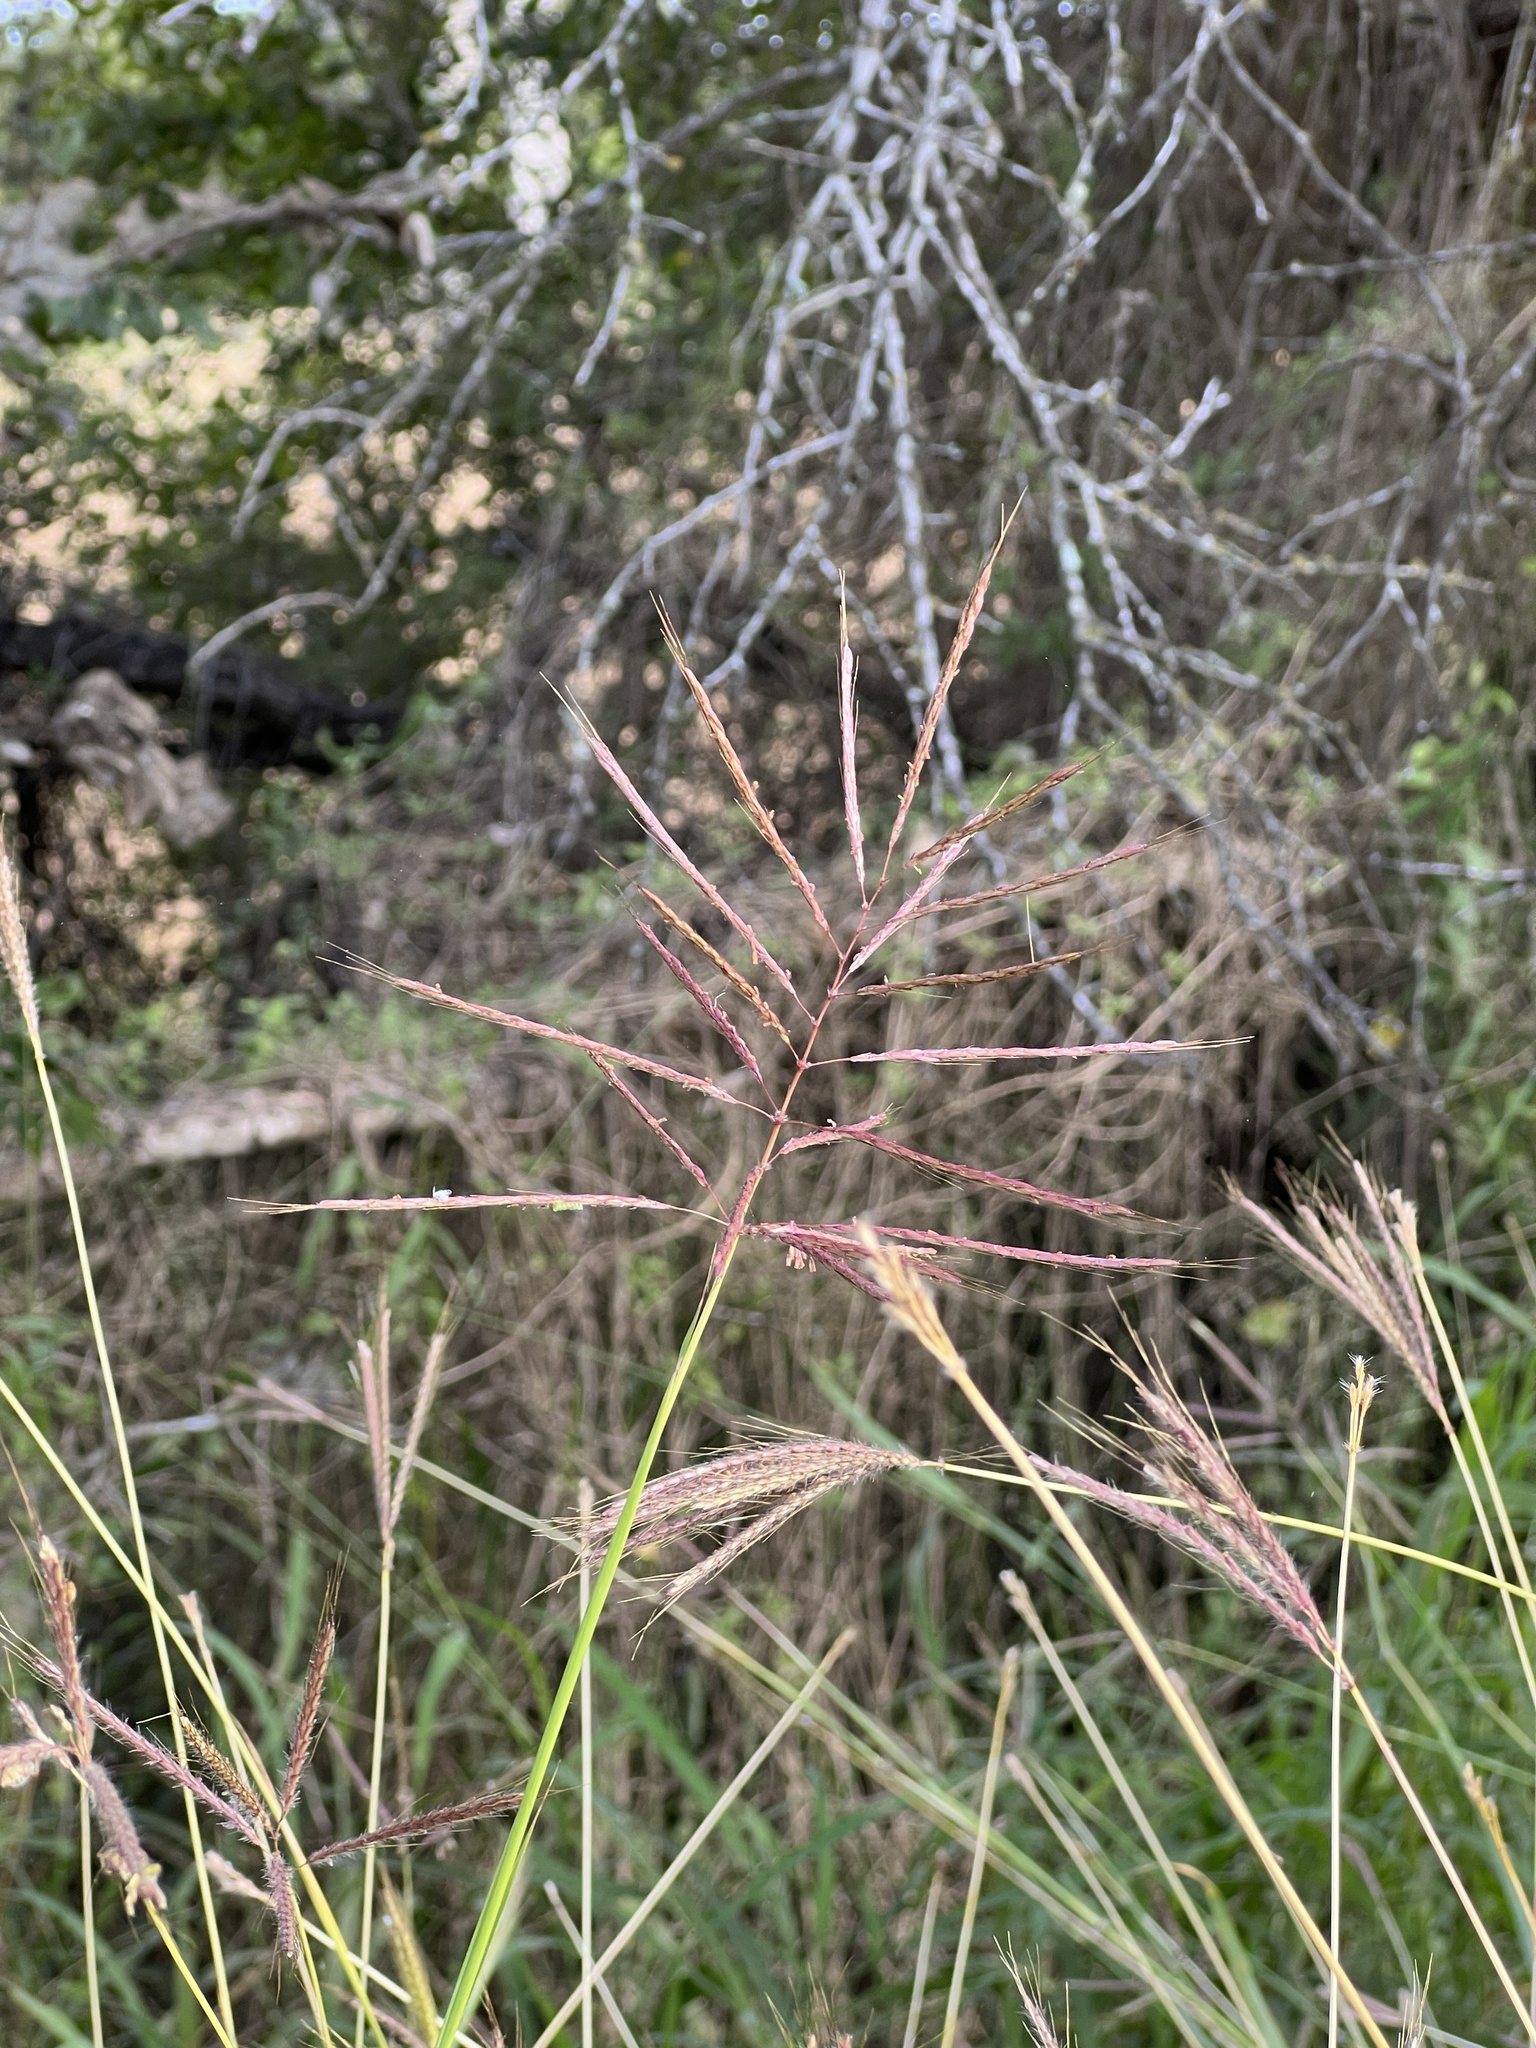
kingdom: Plantae
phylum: Tracheophyta
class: Liliopsida
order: Poales
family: Poaceae
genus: Bothriochloa
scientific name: Bothriochloa bladhii
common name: Caucasian bluestem
